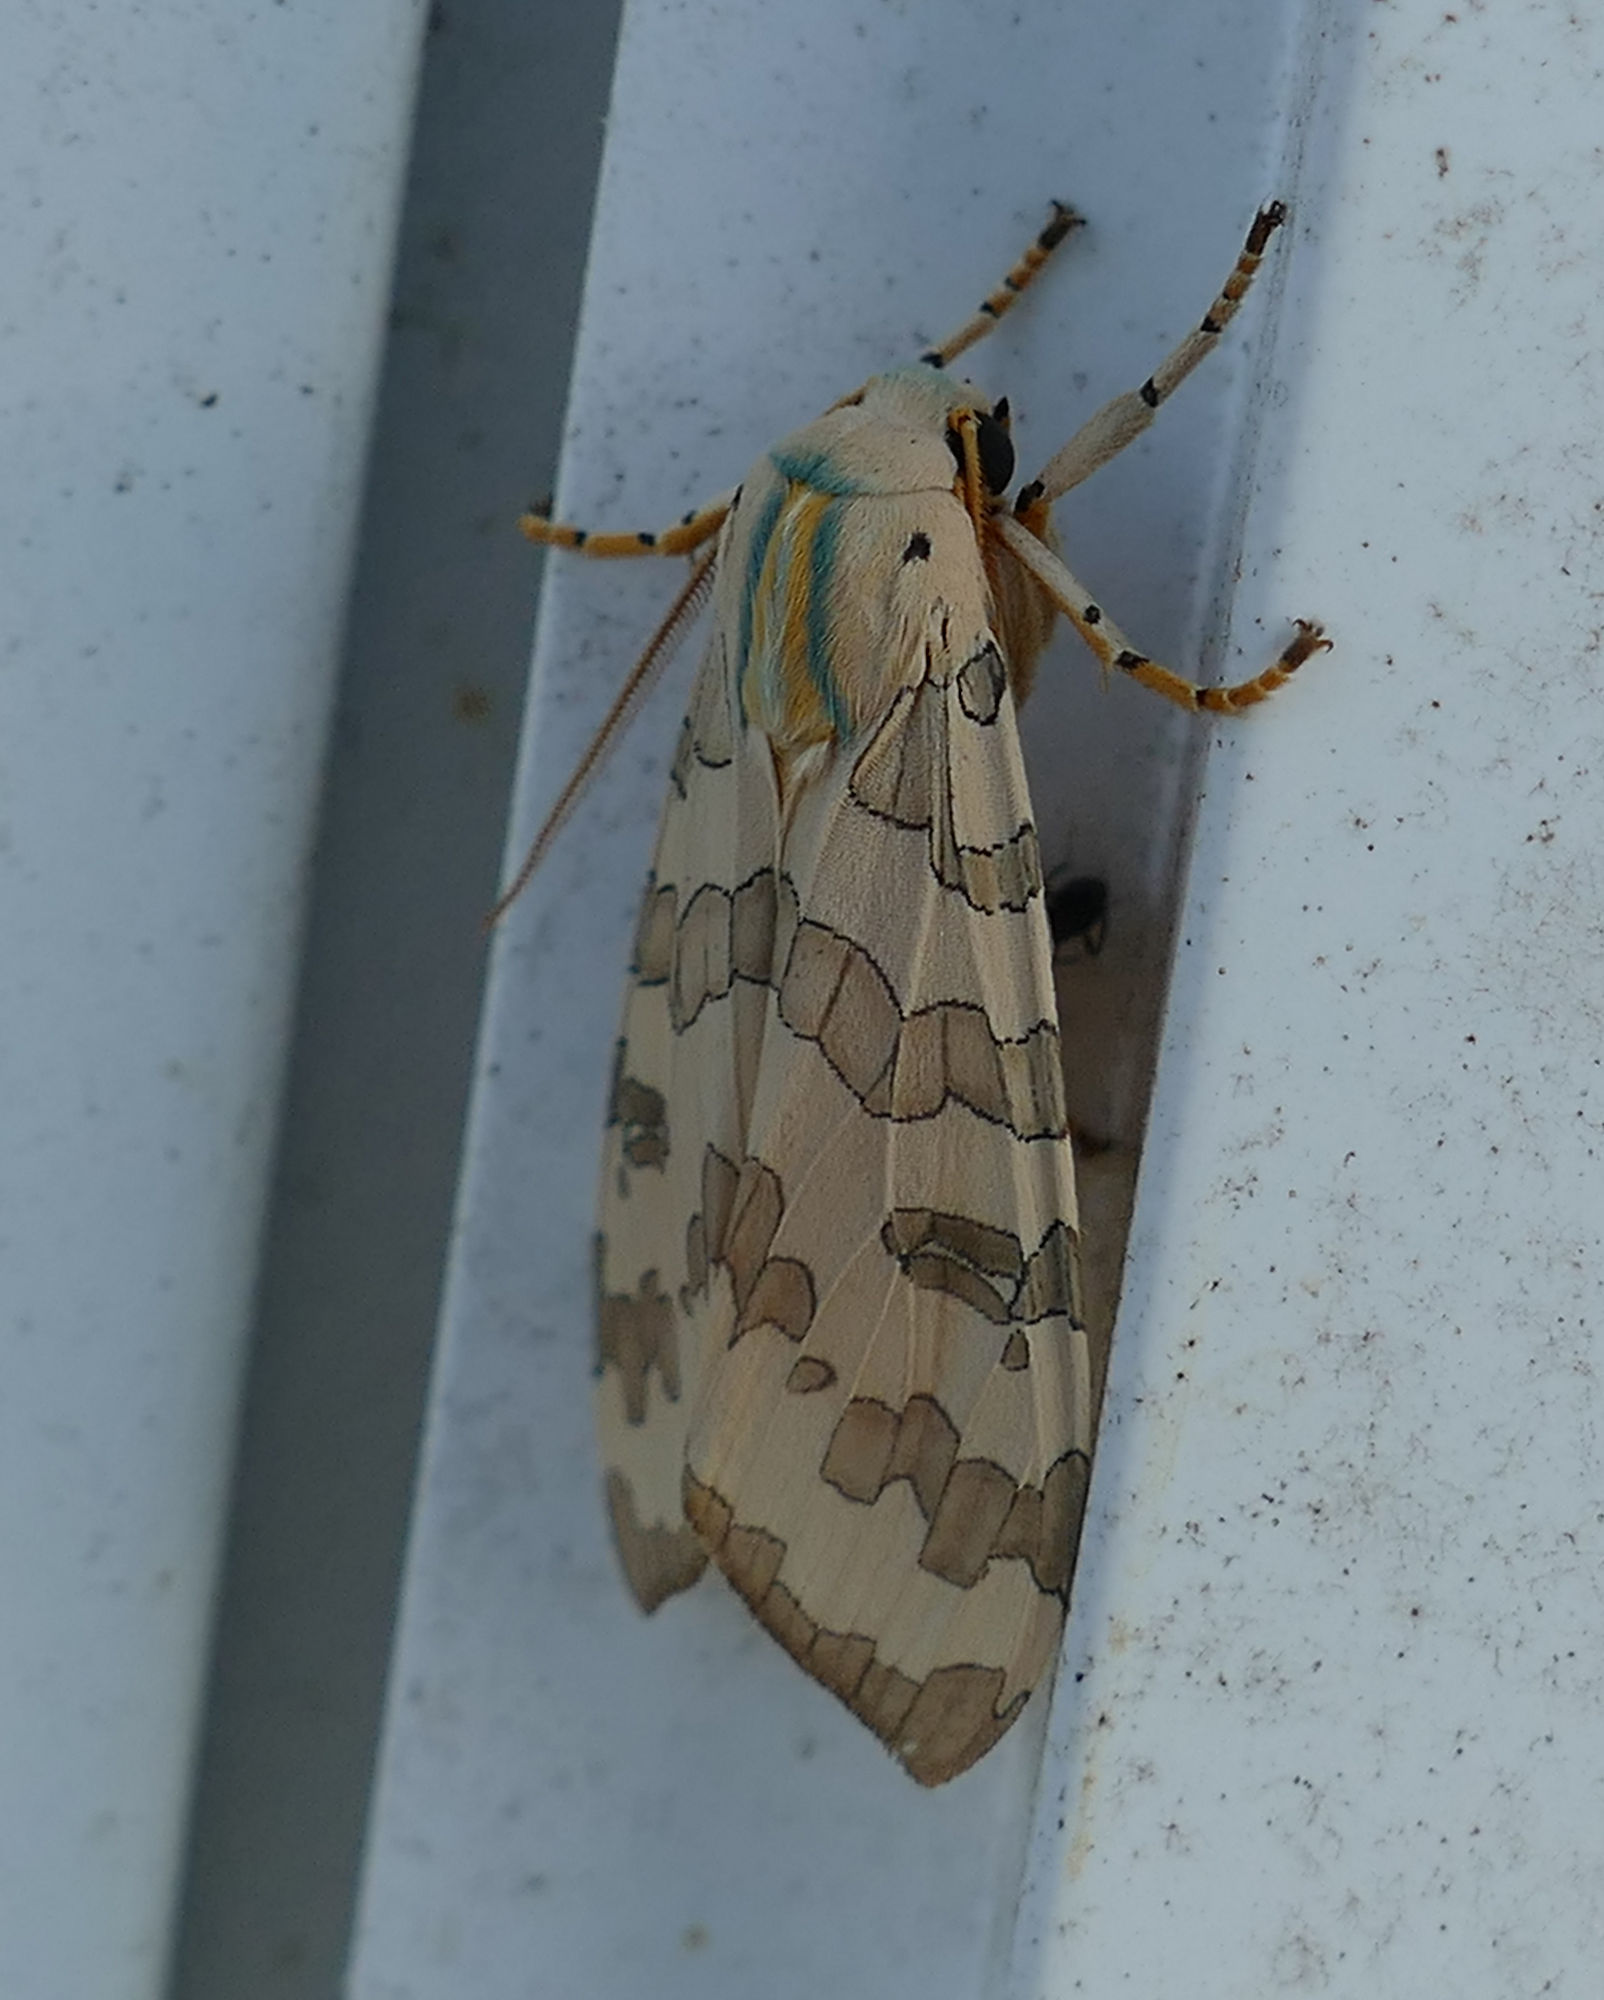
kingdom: Animalia
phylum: Arthropoda
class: Insecta
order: Lepidoptera
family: Erebidae
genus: Halysidota
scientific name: Halysidota
